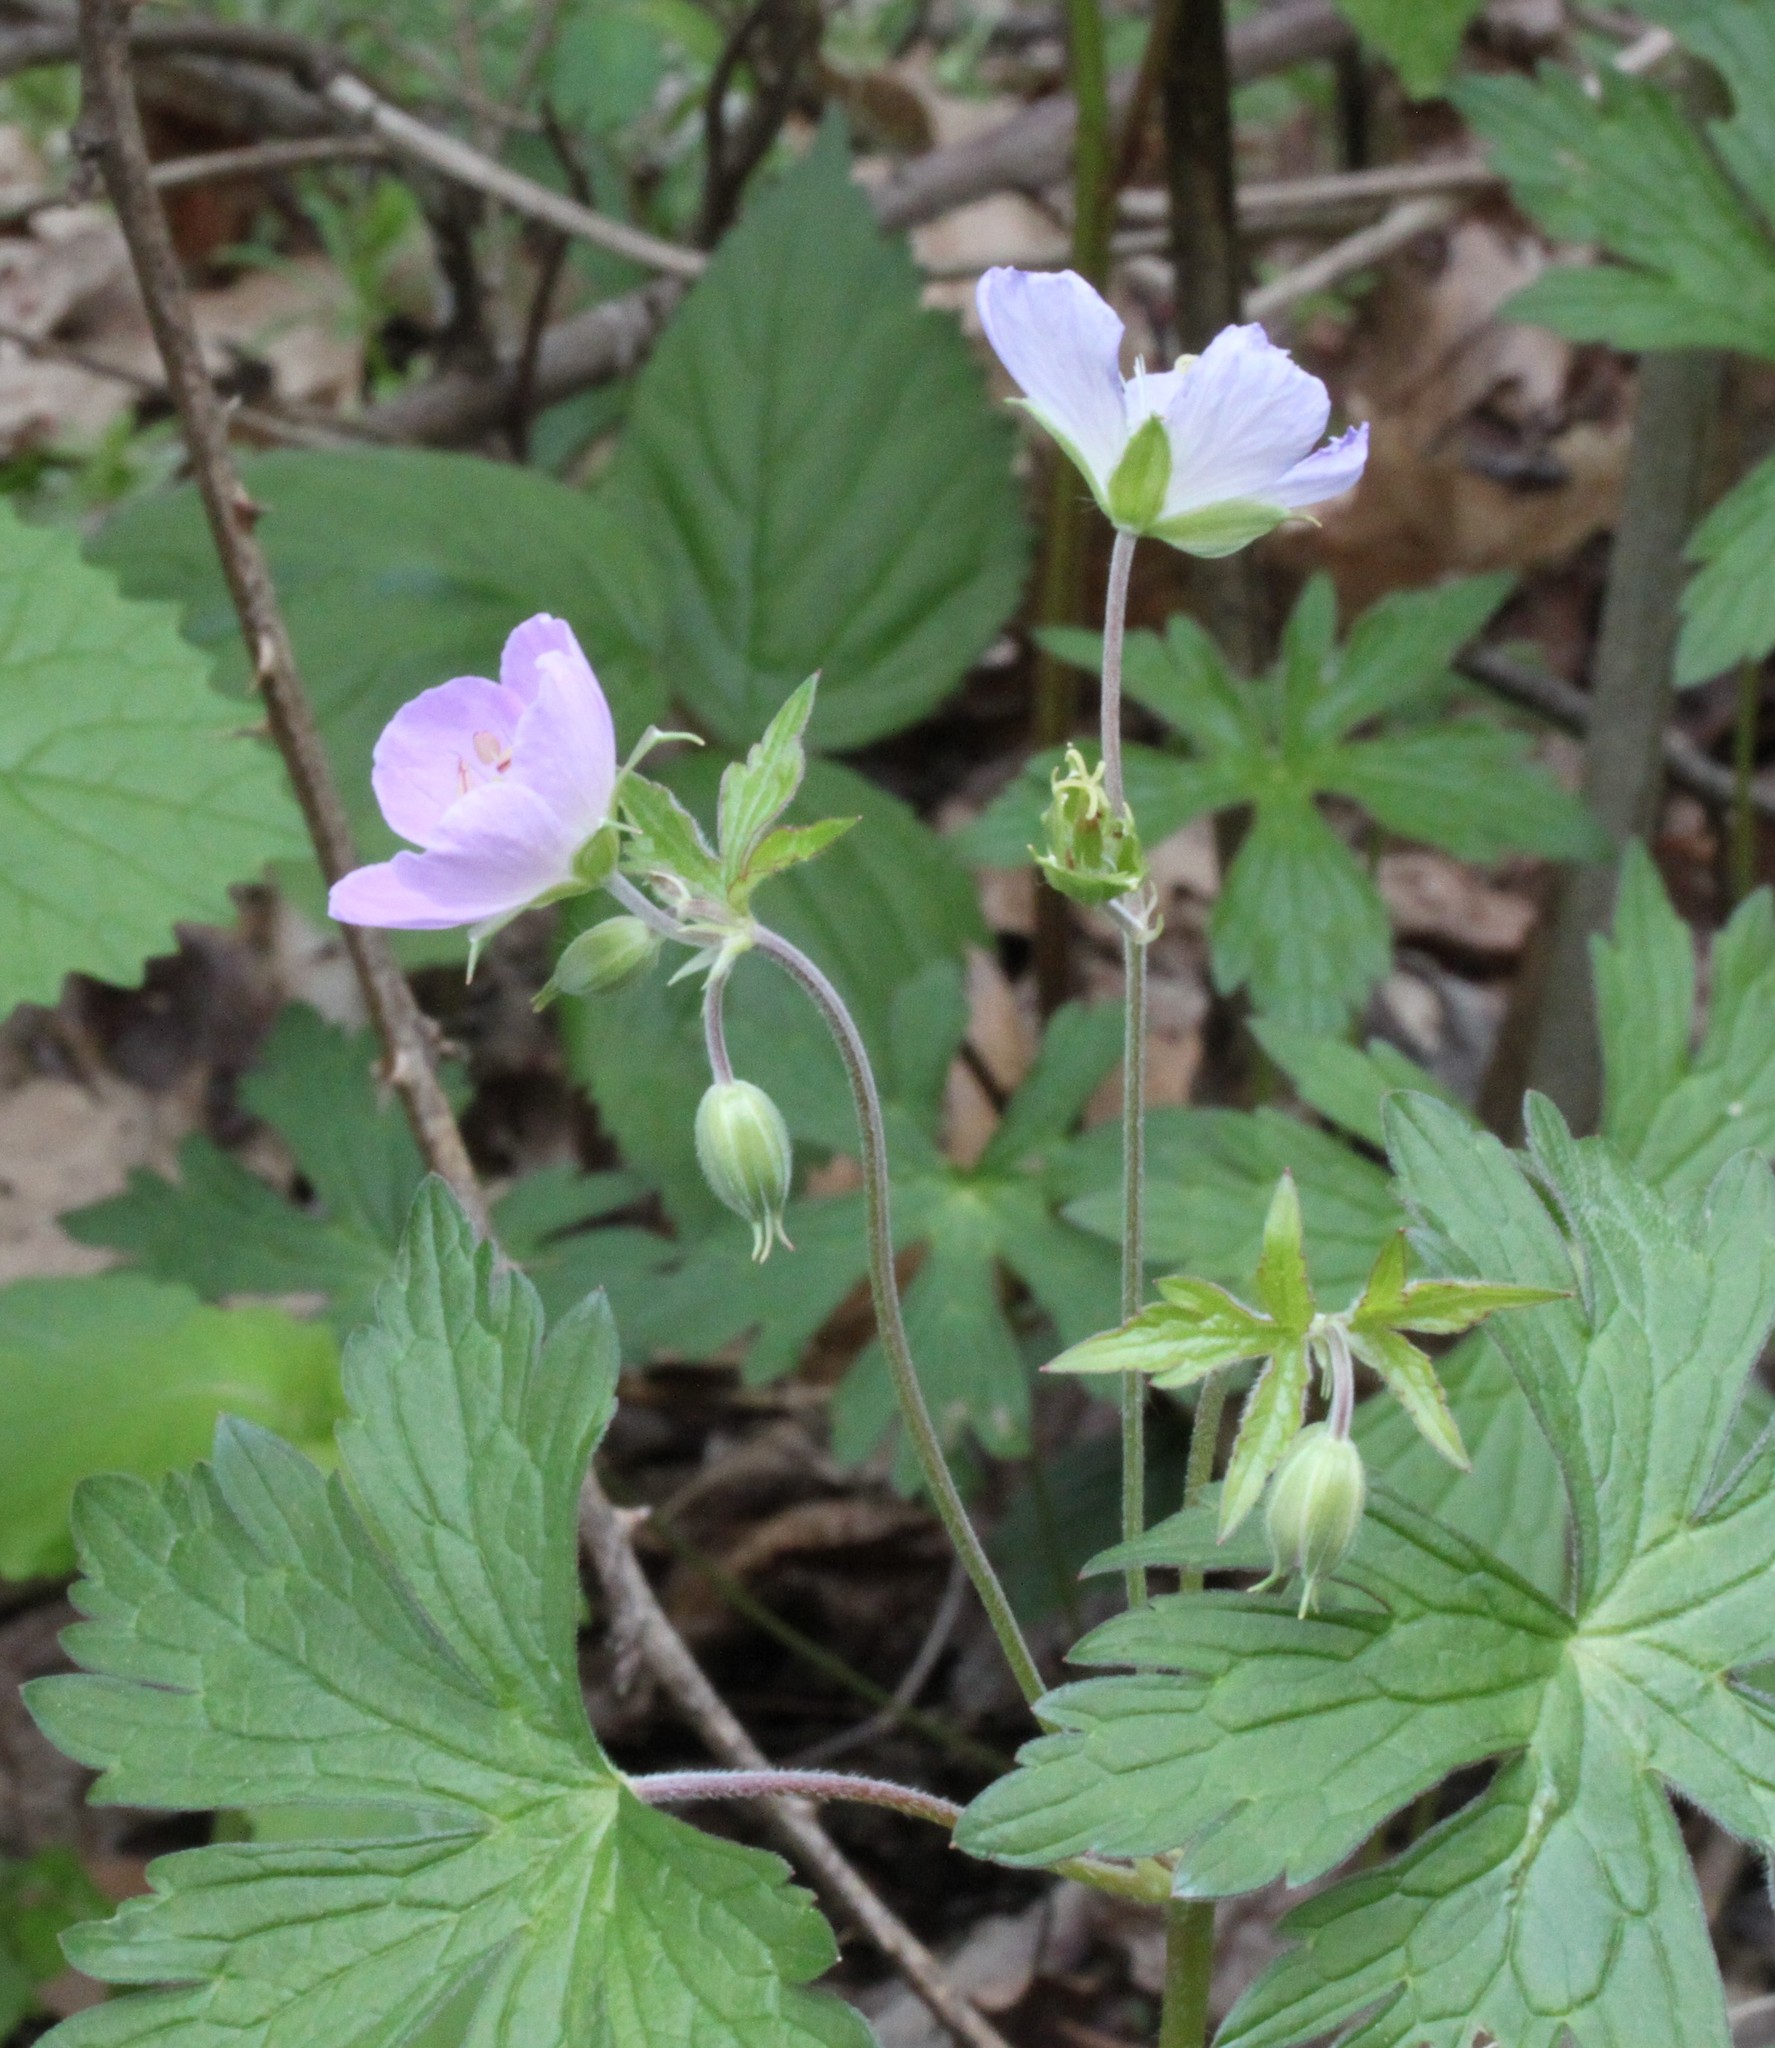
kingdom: Plantae
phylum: Tracheophyta
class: Magnoliopsida
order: Geraniales
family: Geraniaceae
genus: Geranium
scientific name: Geranium maculatum
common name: Spotted geranium
